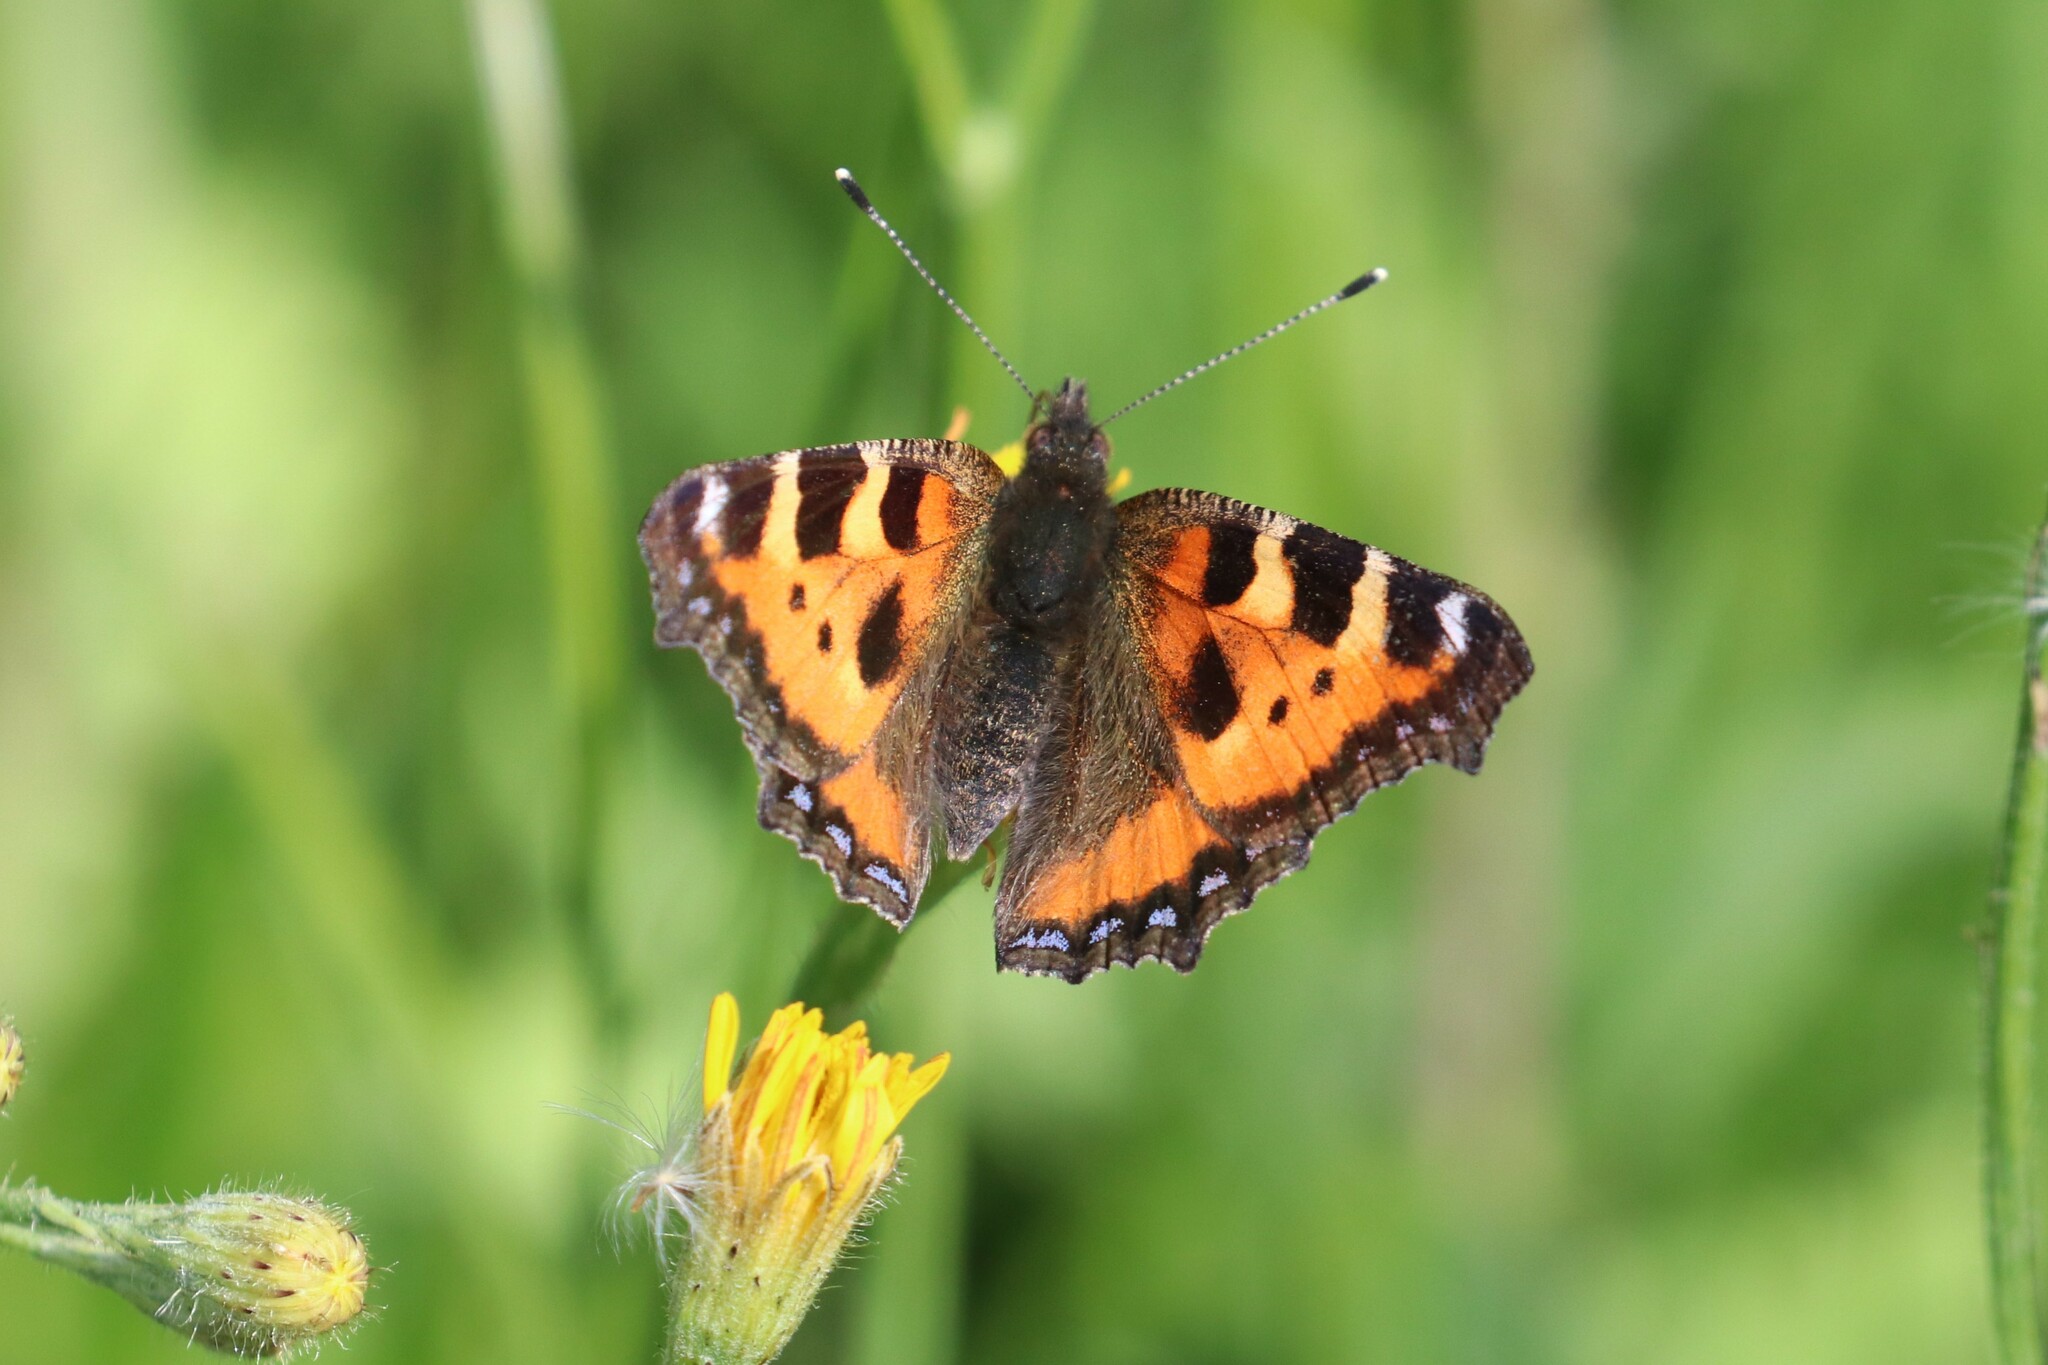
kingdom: Animalia
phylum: Arthropoda
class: Insecta
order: Lepidoptera
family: Nymphalidae
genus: Aglais
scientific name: Aglais urticae
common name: Small tortoiseshell
